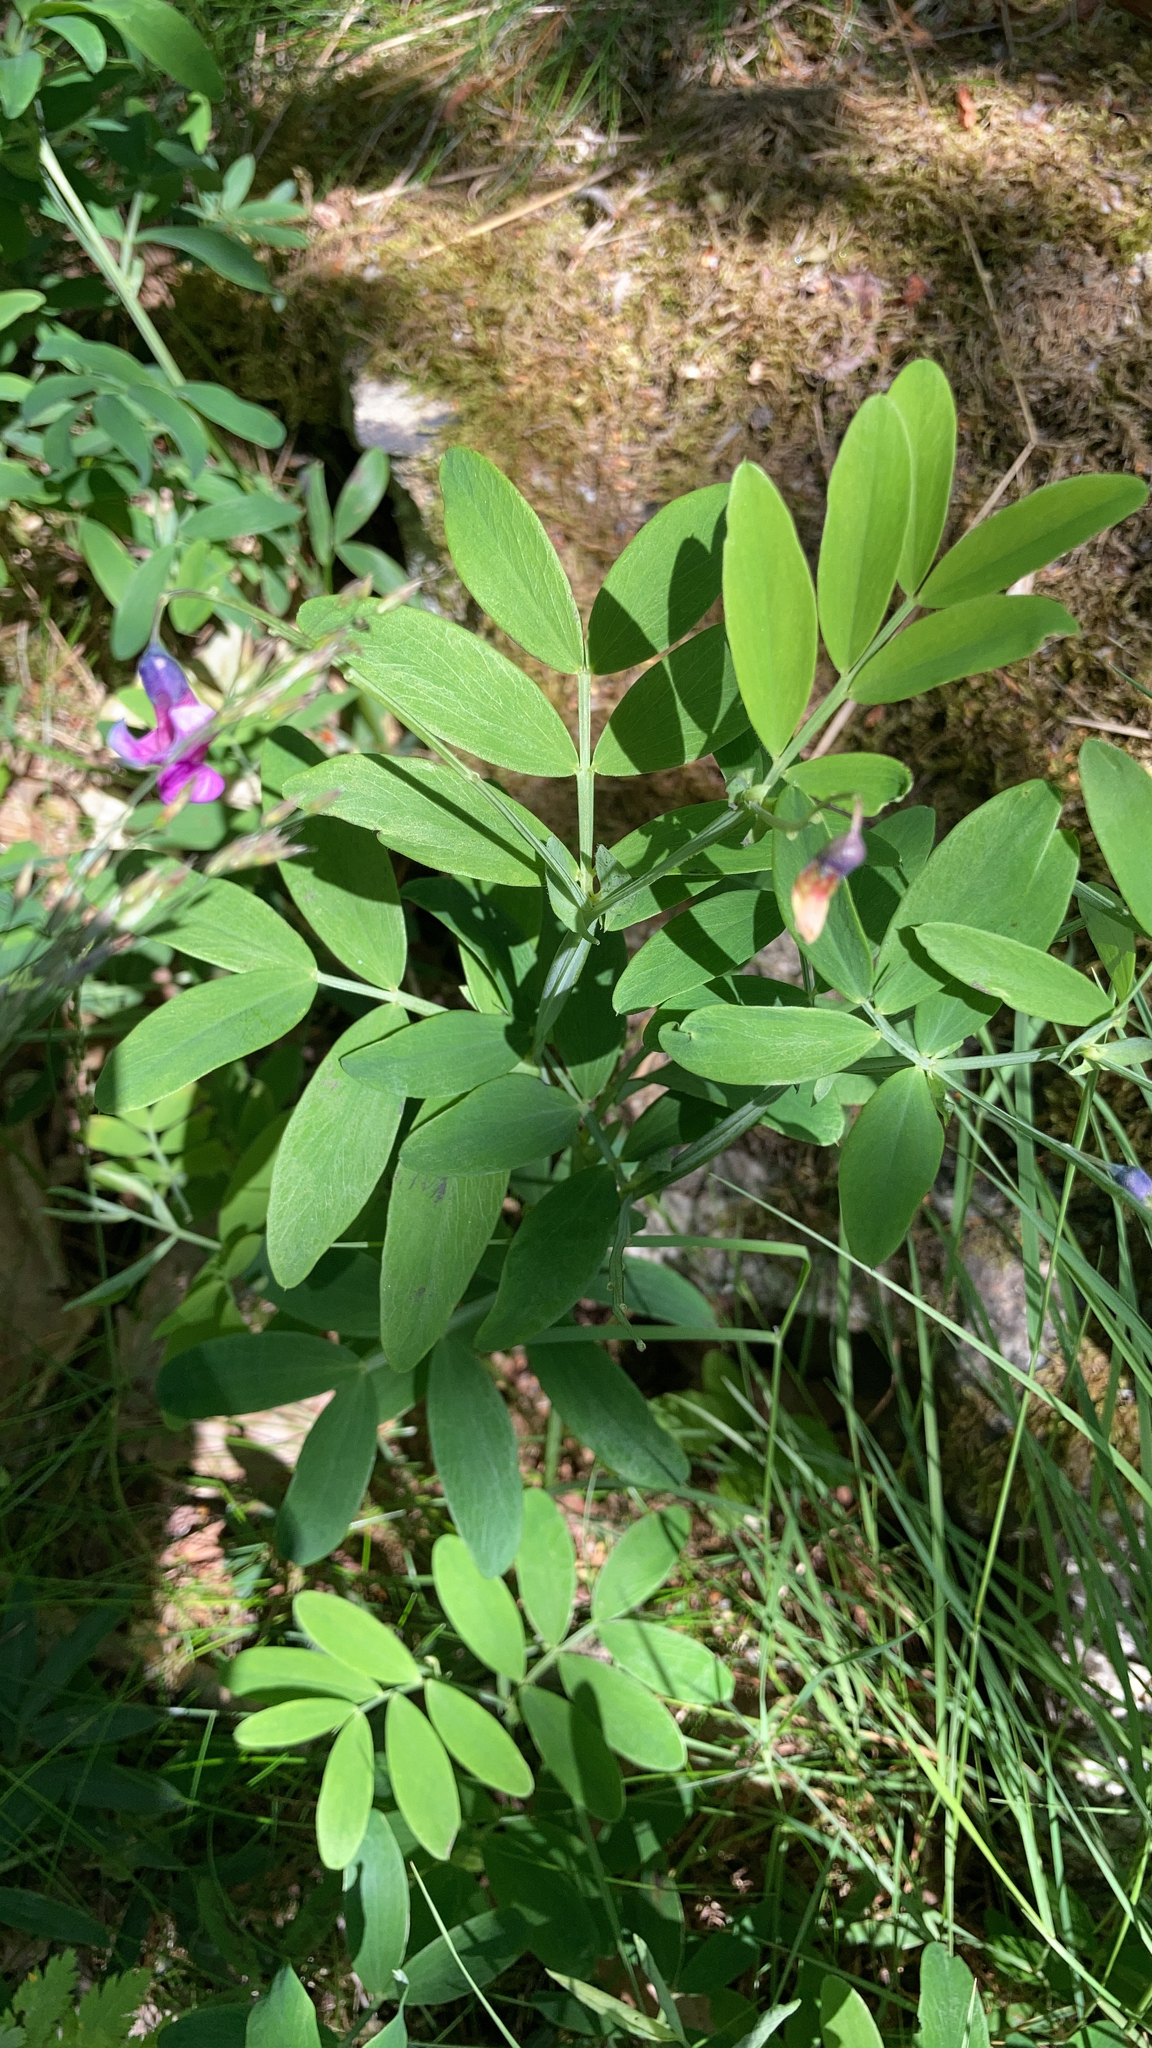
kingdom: Plantae
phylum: Tracheophyta
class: Magnoliopsida
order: Fabales
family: Fabaceae
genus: Lathyrus
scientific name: Lathyrus linifolius
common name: Bitter-vetch
